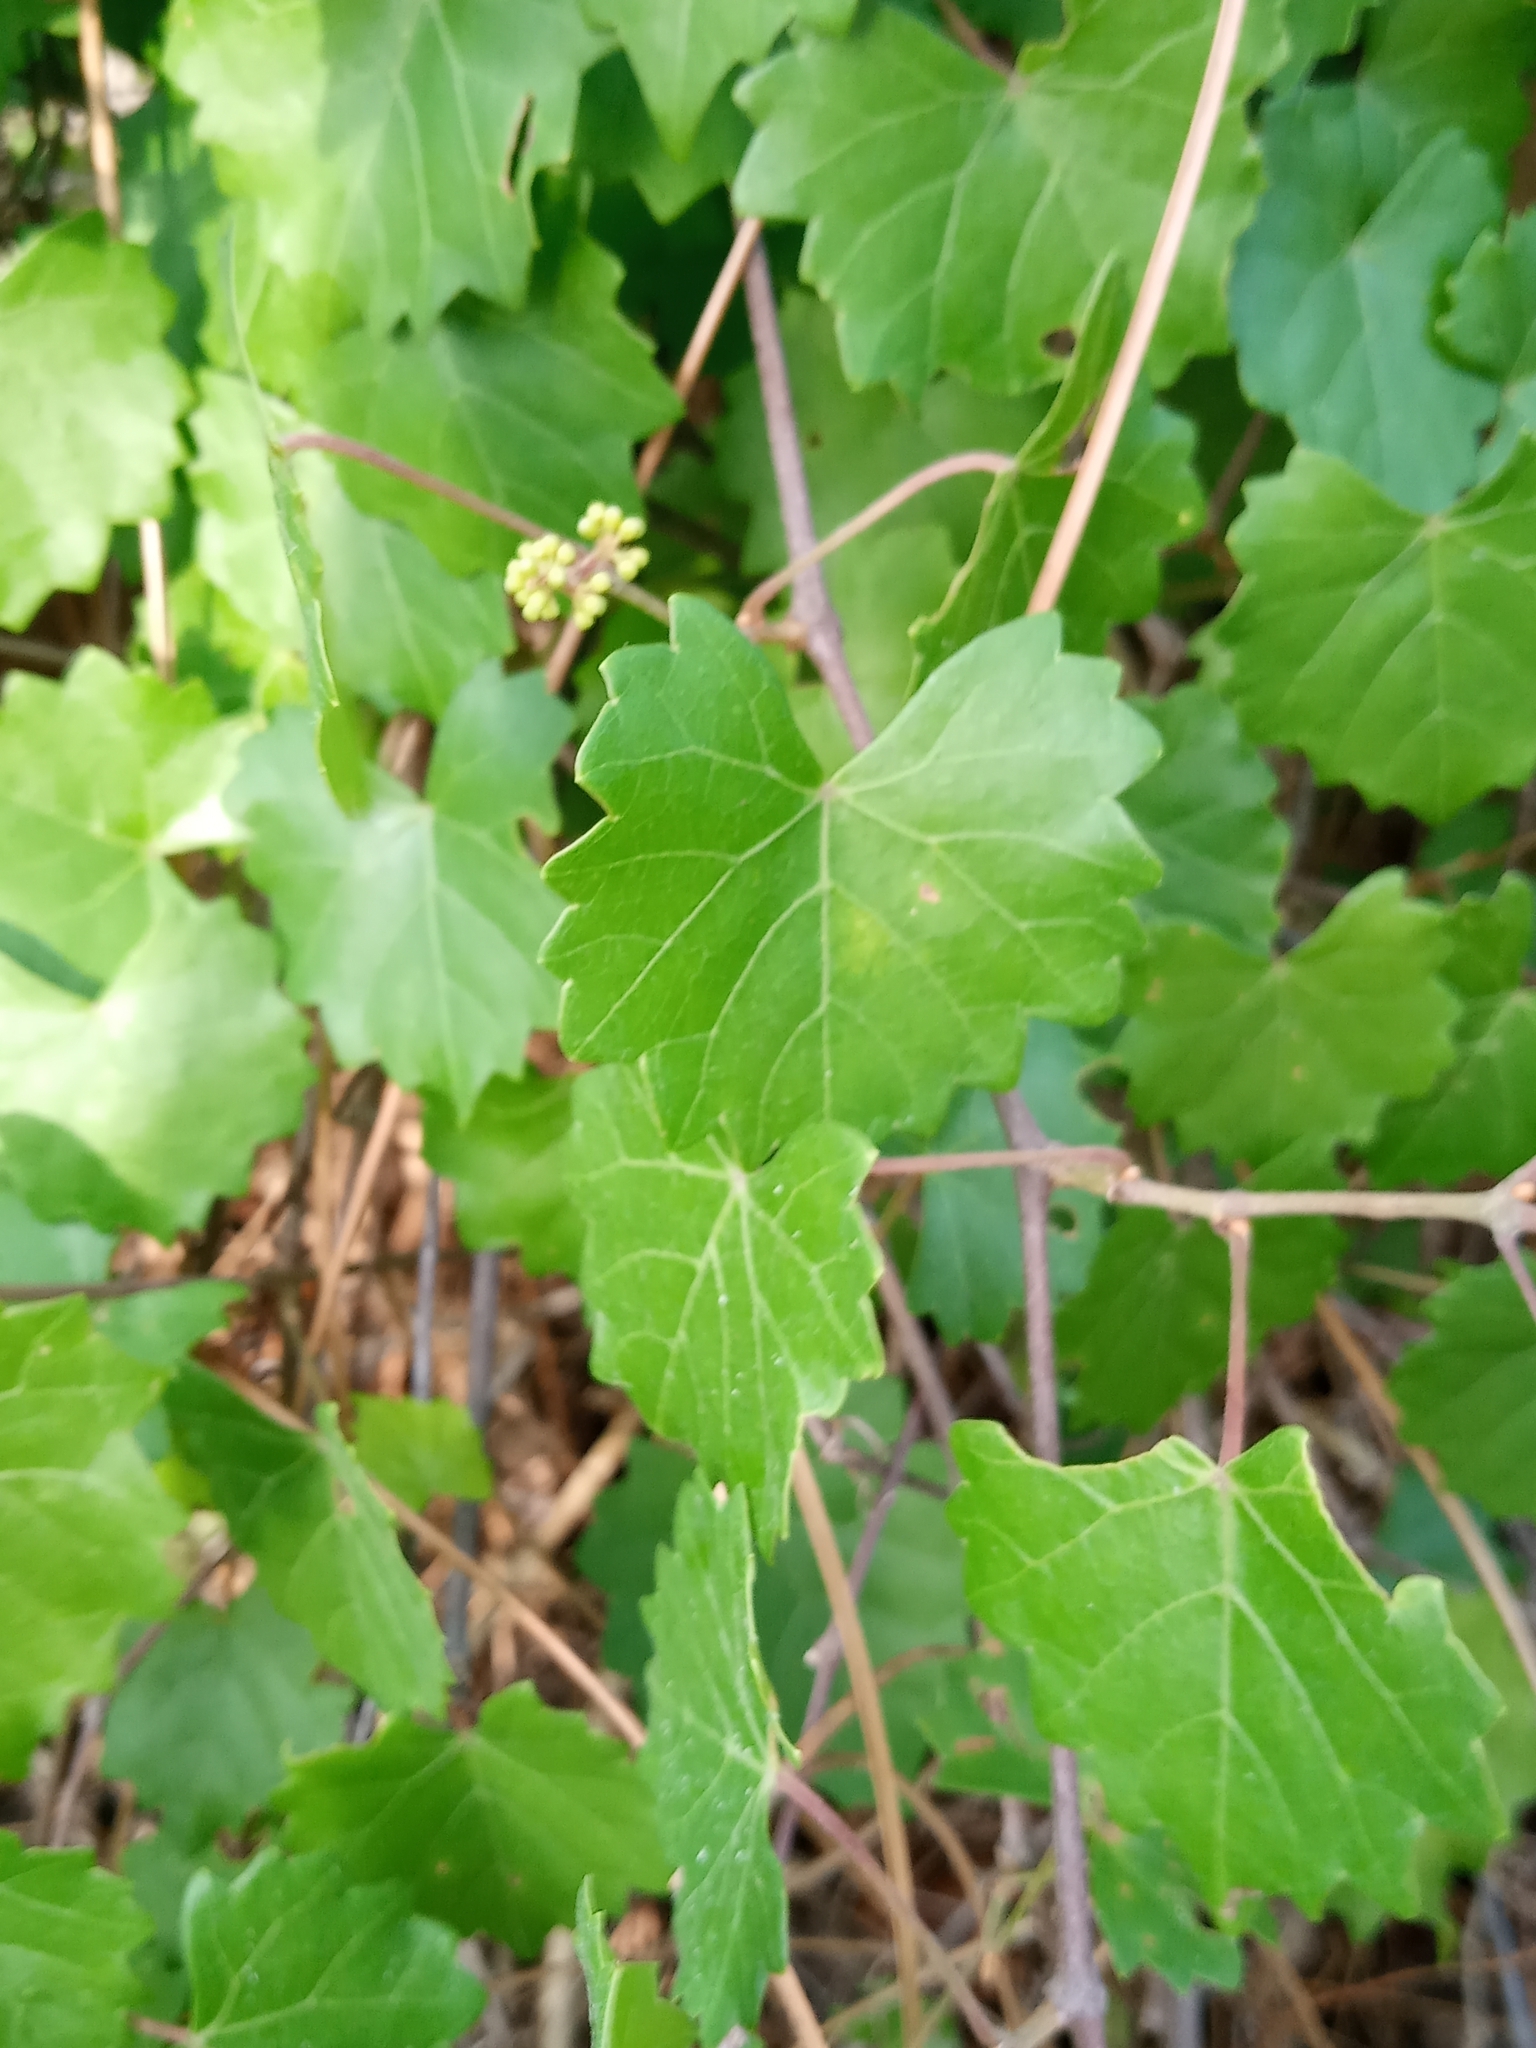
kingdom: Plantae
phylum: Tracheophyta
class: Magnoliopsida
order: Vitales
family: Vitaceae
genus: Vitis
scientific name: Vitis rotundifolia
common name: Muscadine grape
